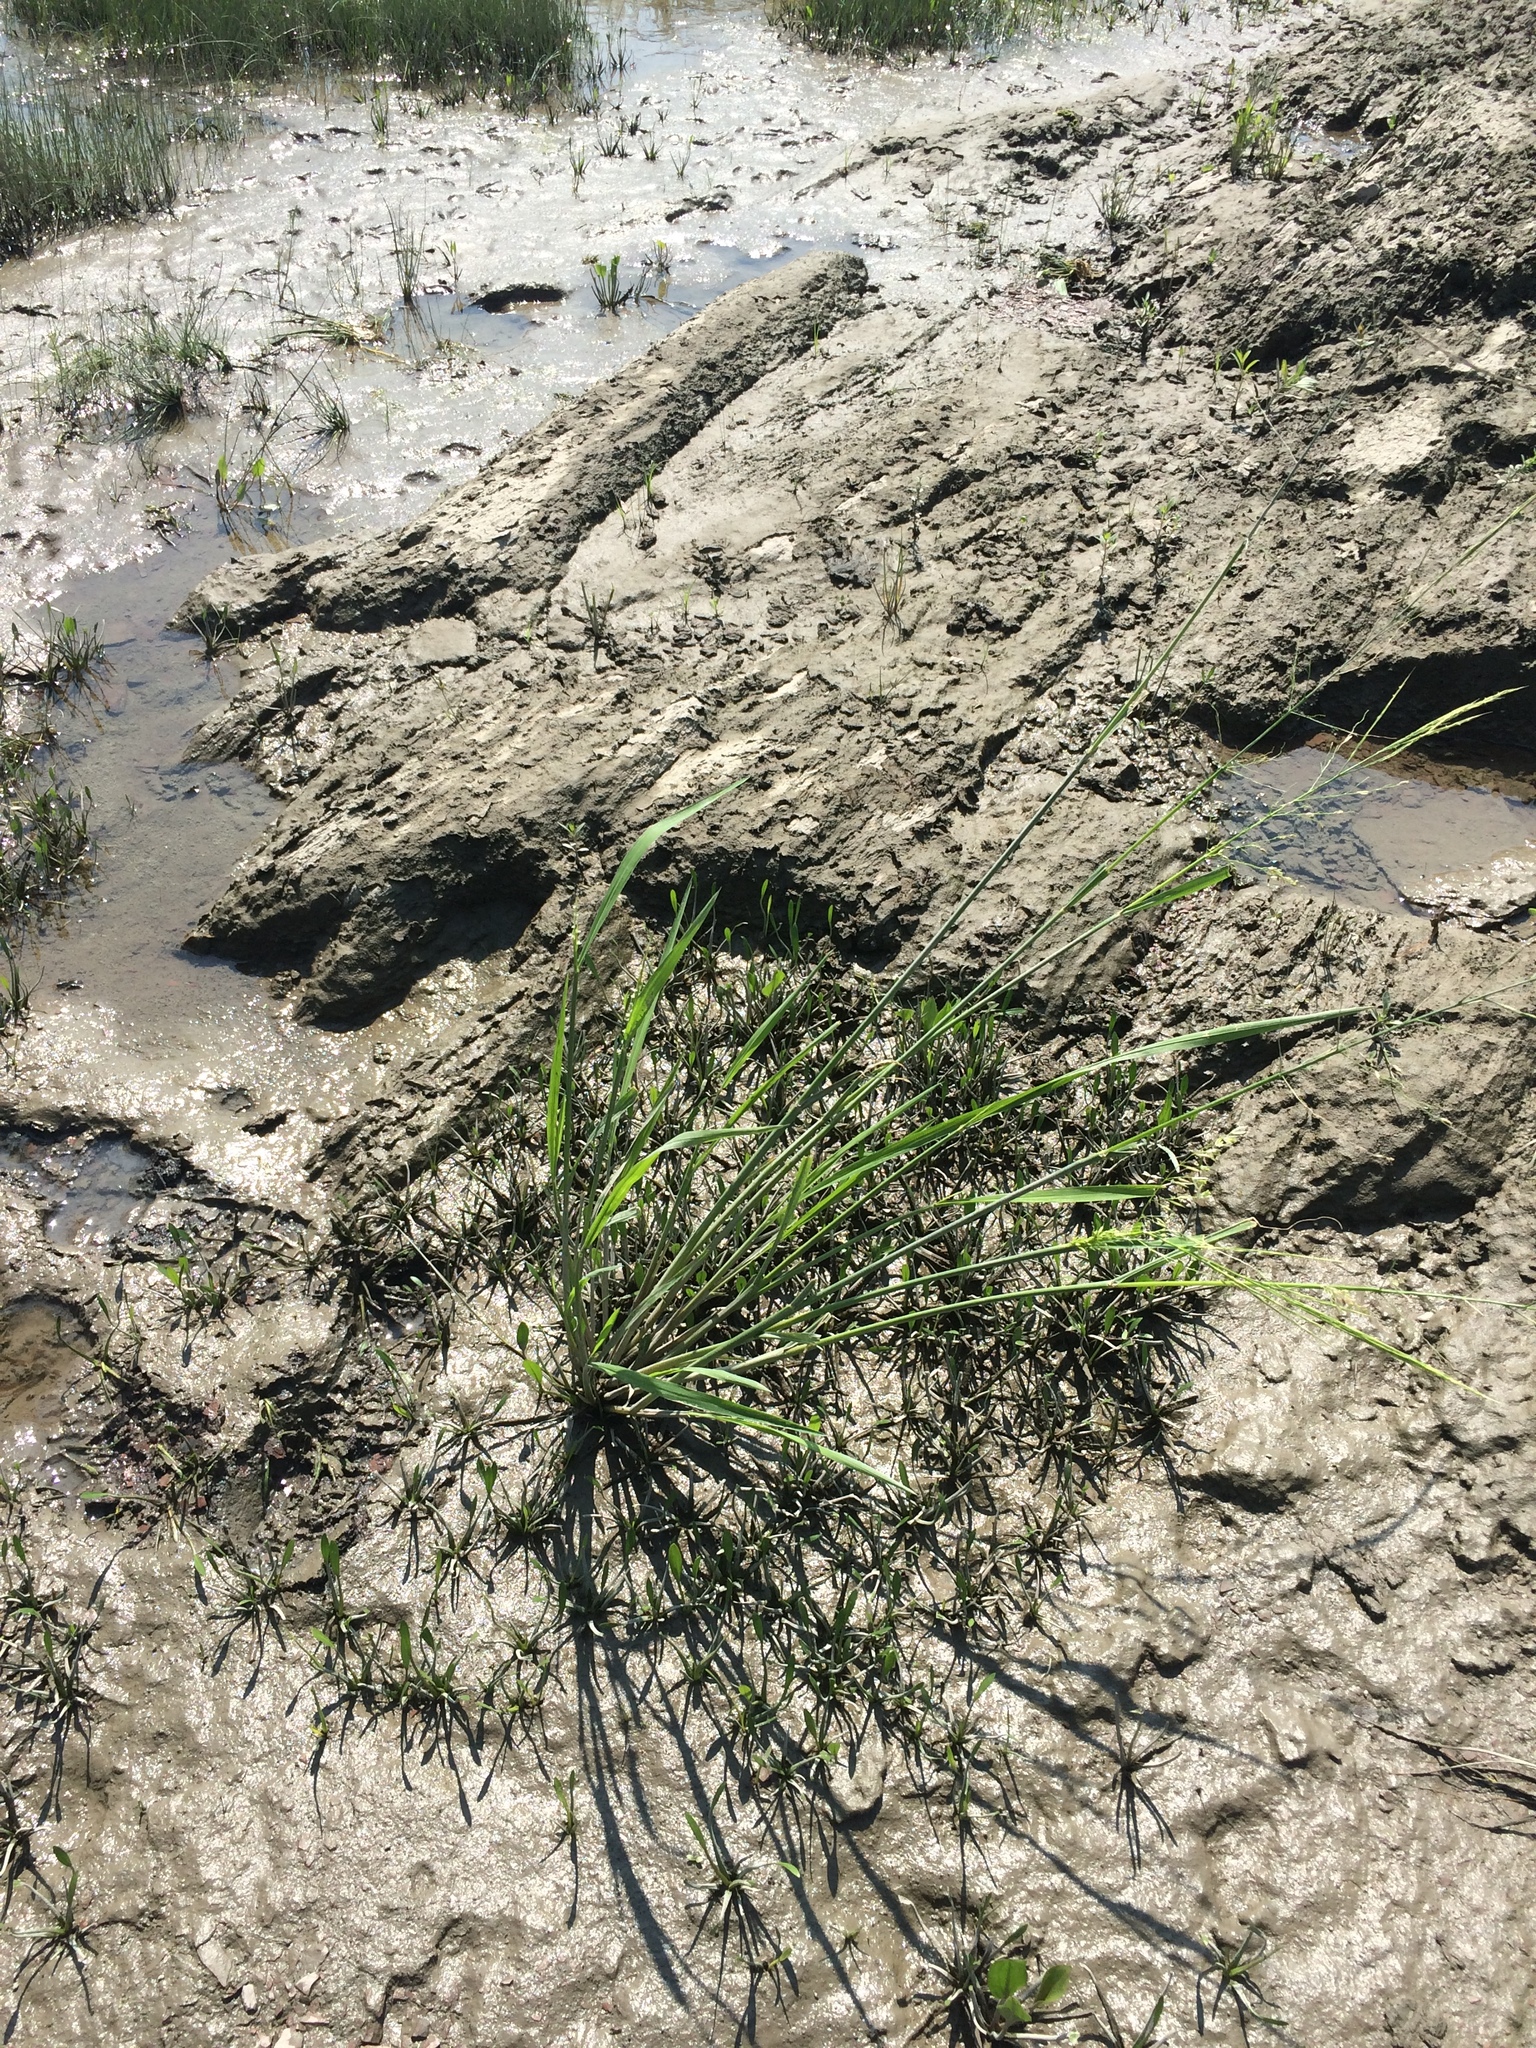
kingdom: Plantae
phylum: Tracheophyta
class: Liliopsida
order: Poales
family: Poaceae
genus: Zizania
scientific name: Zizania aquatica
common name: Annual wildrice
